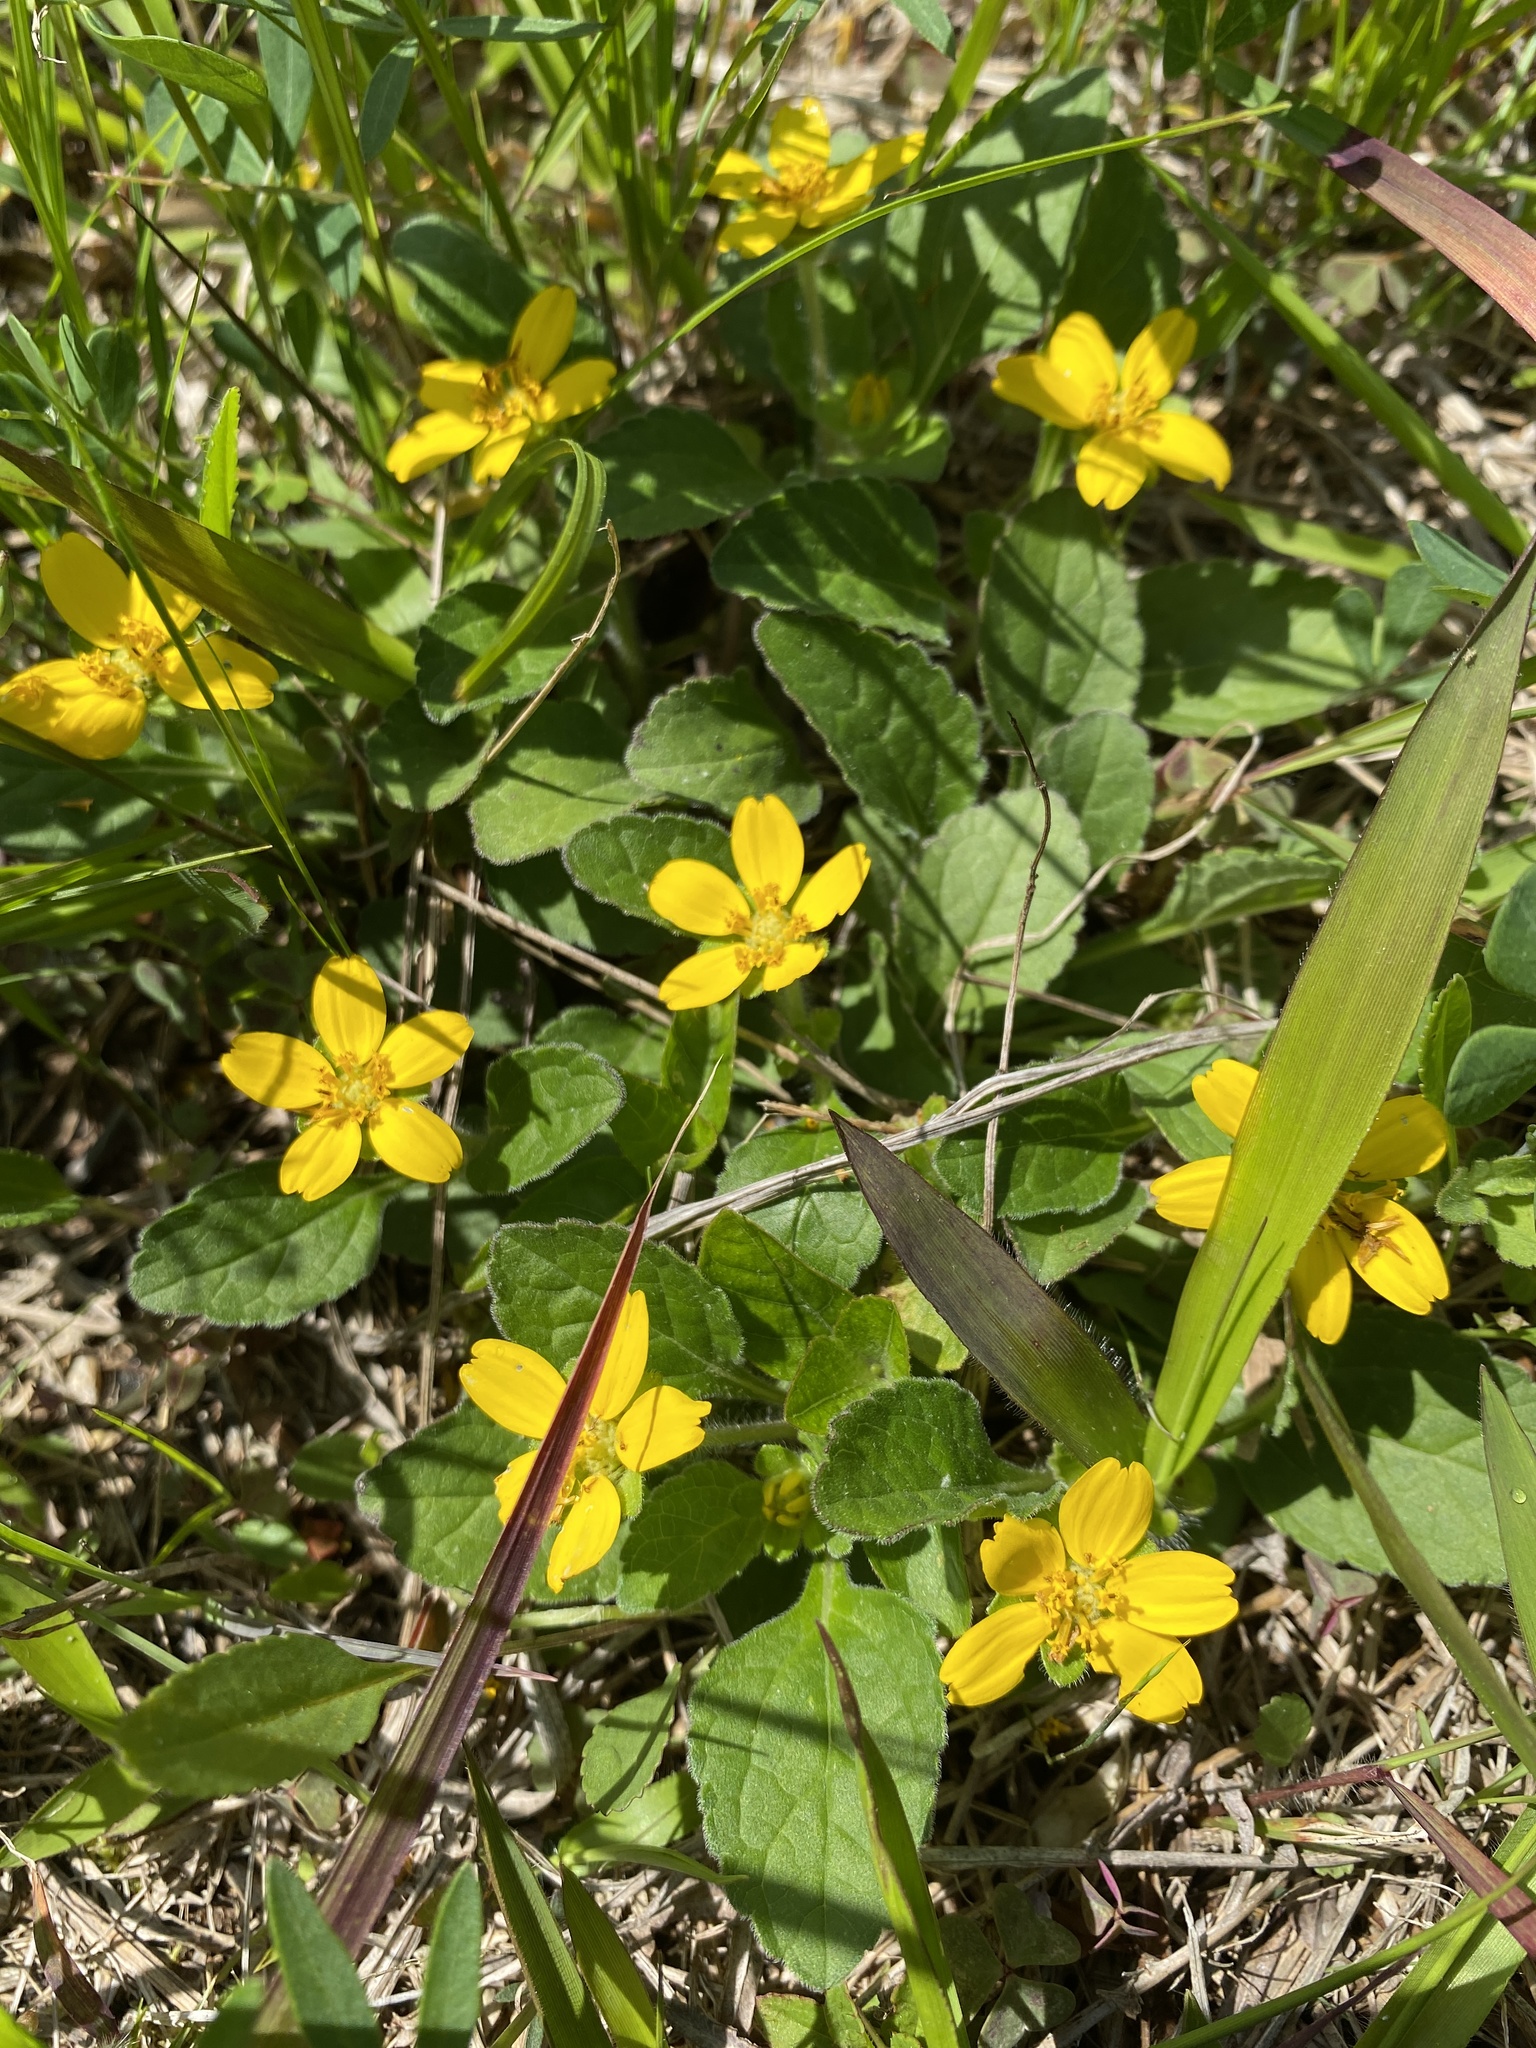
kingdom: Plantae
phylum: Tracheophyta
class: Magnoliopsida
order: Asterales
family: Asteraceae
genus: Chrysogonum
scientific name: Chrysogonum virginianum
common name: Golden-knee
